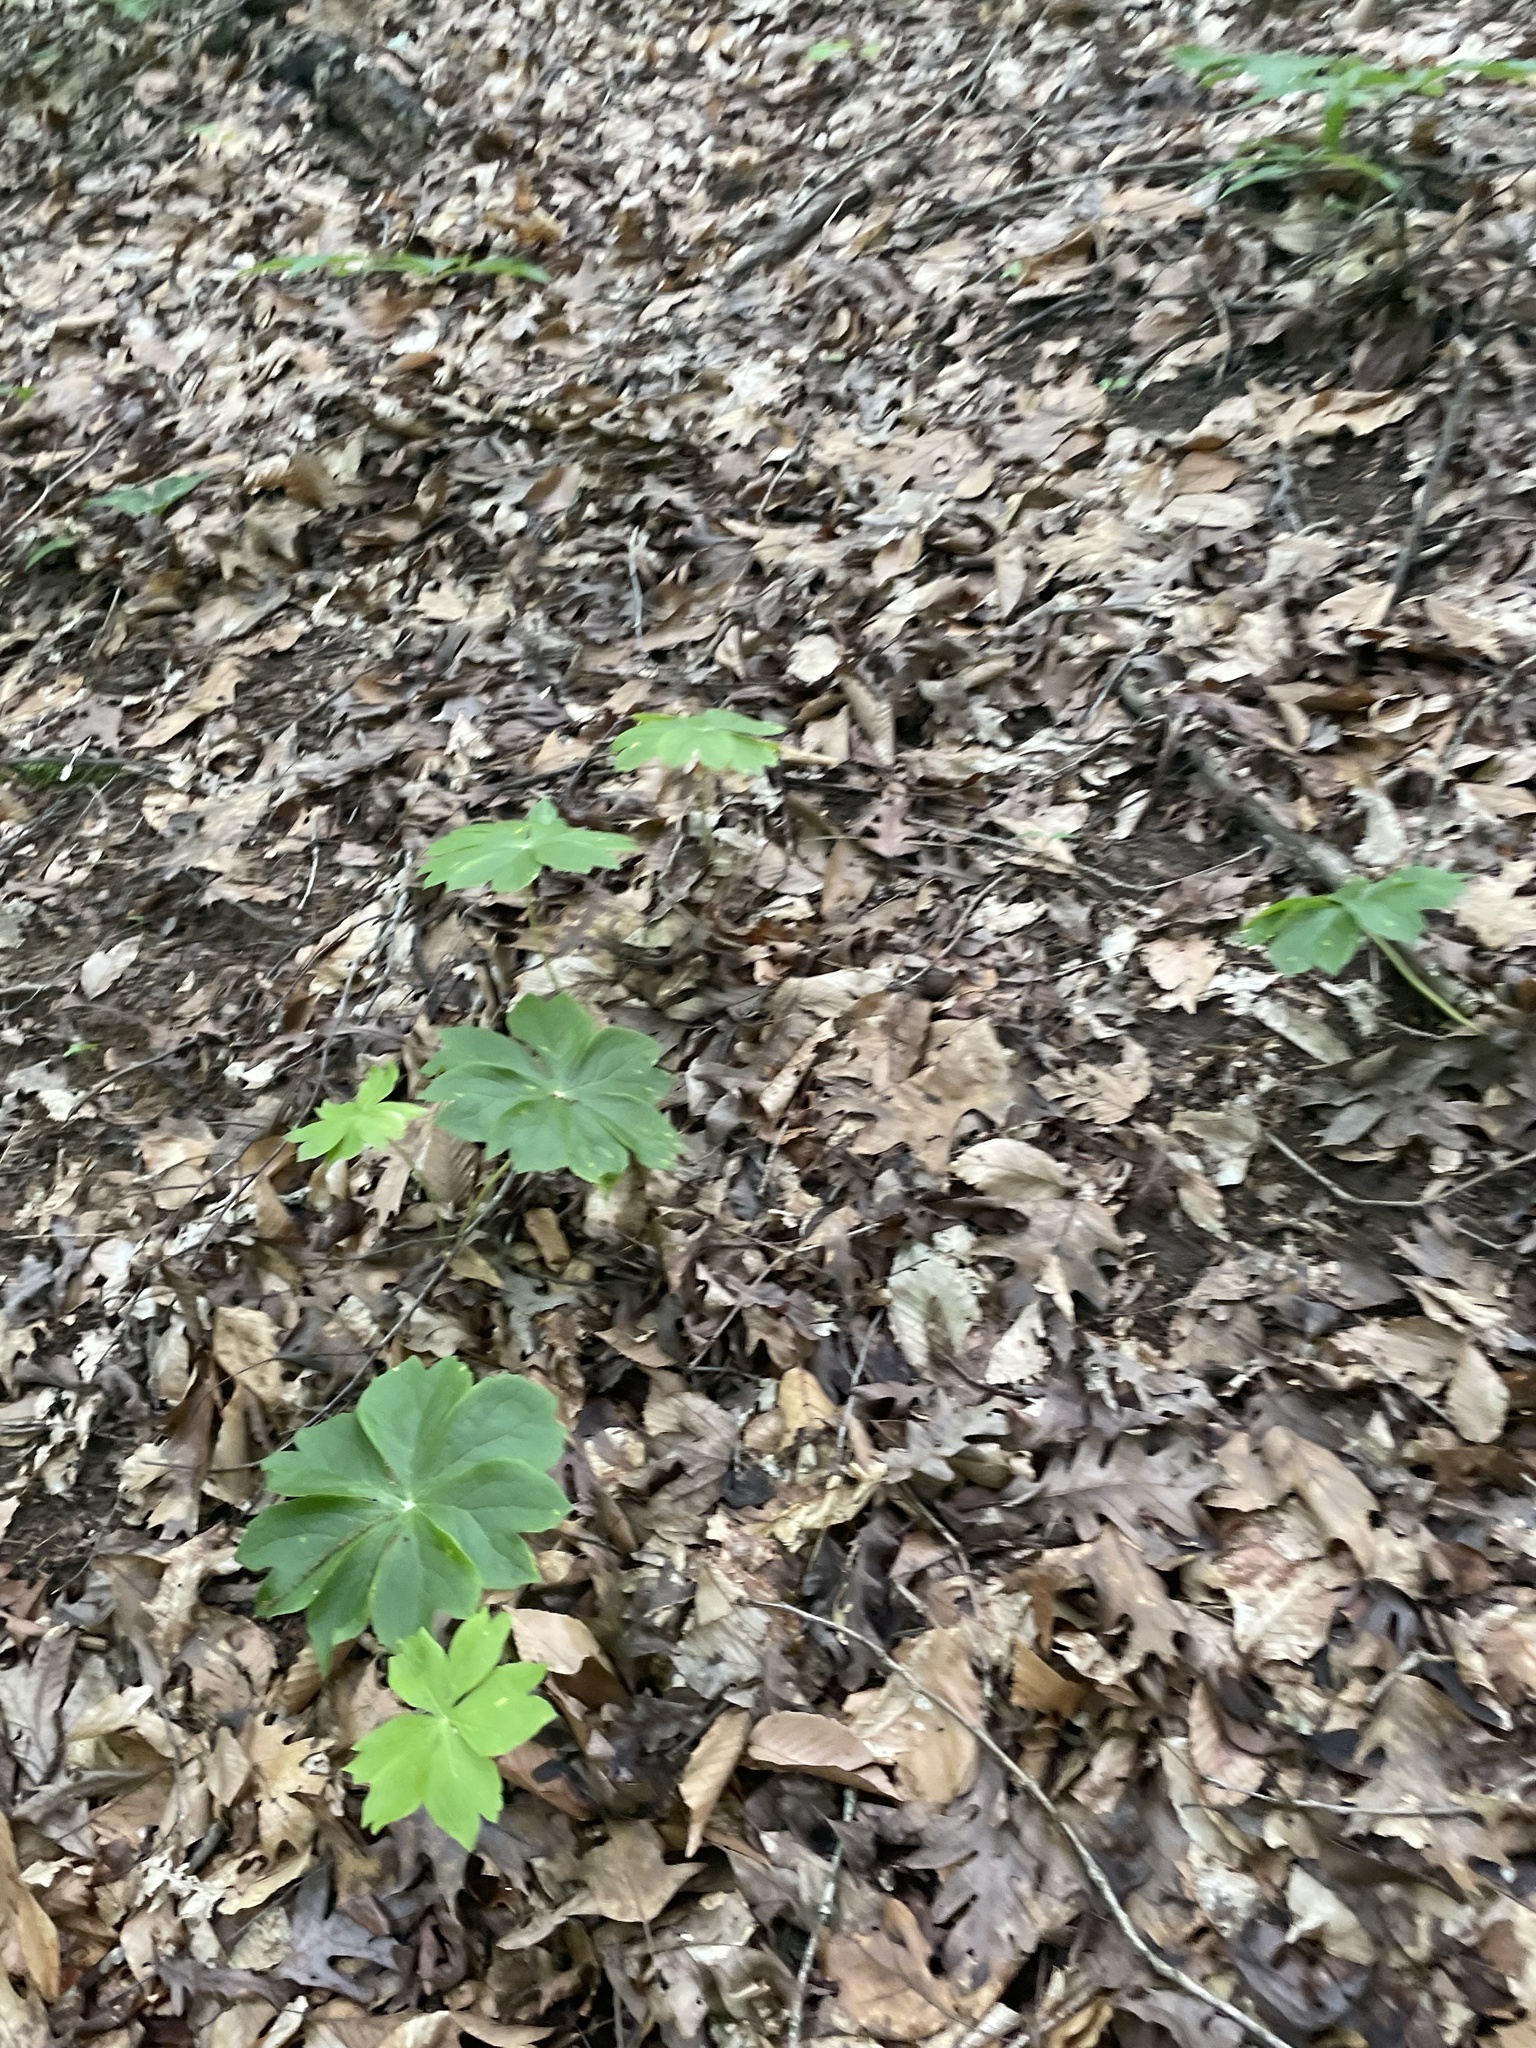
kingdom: Plantae
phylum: Tracheophyta
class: Magnoliopsida
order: Ranunculales
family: Berberidaceae
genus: Podophyllum
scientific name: Podophyllum peltatum
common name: Wild mandrake
